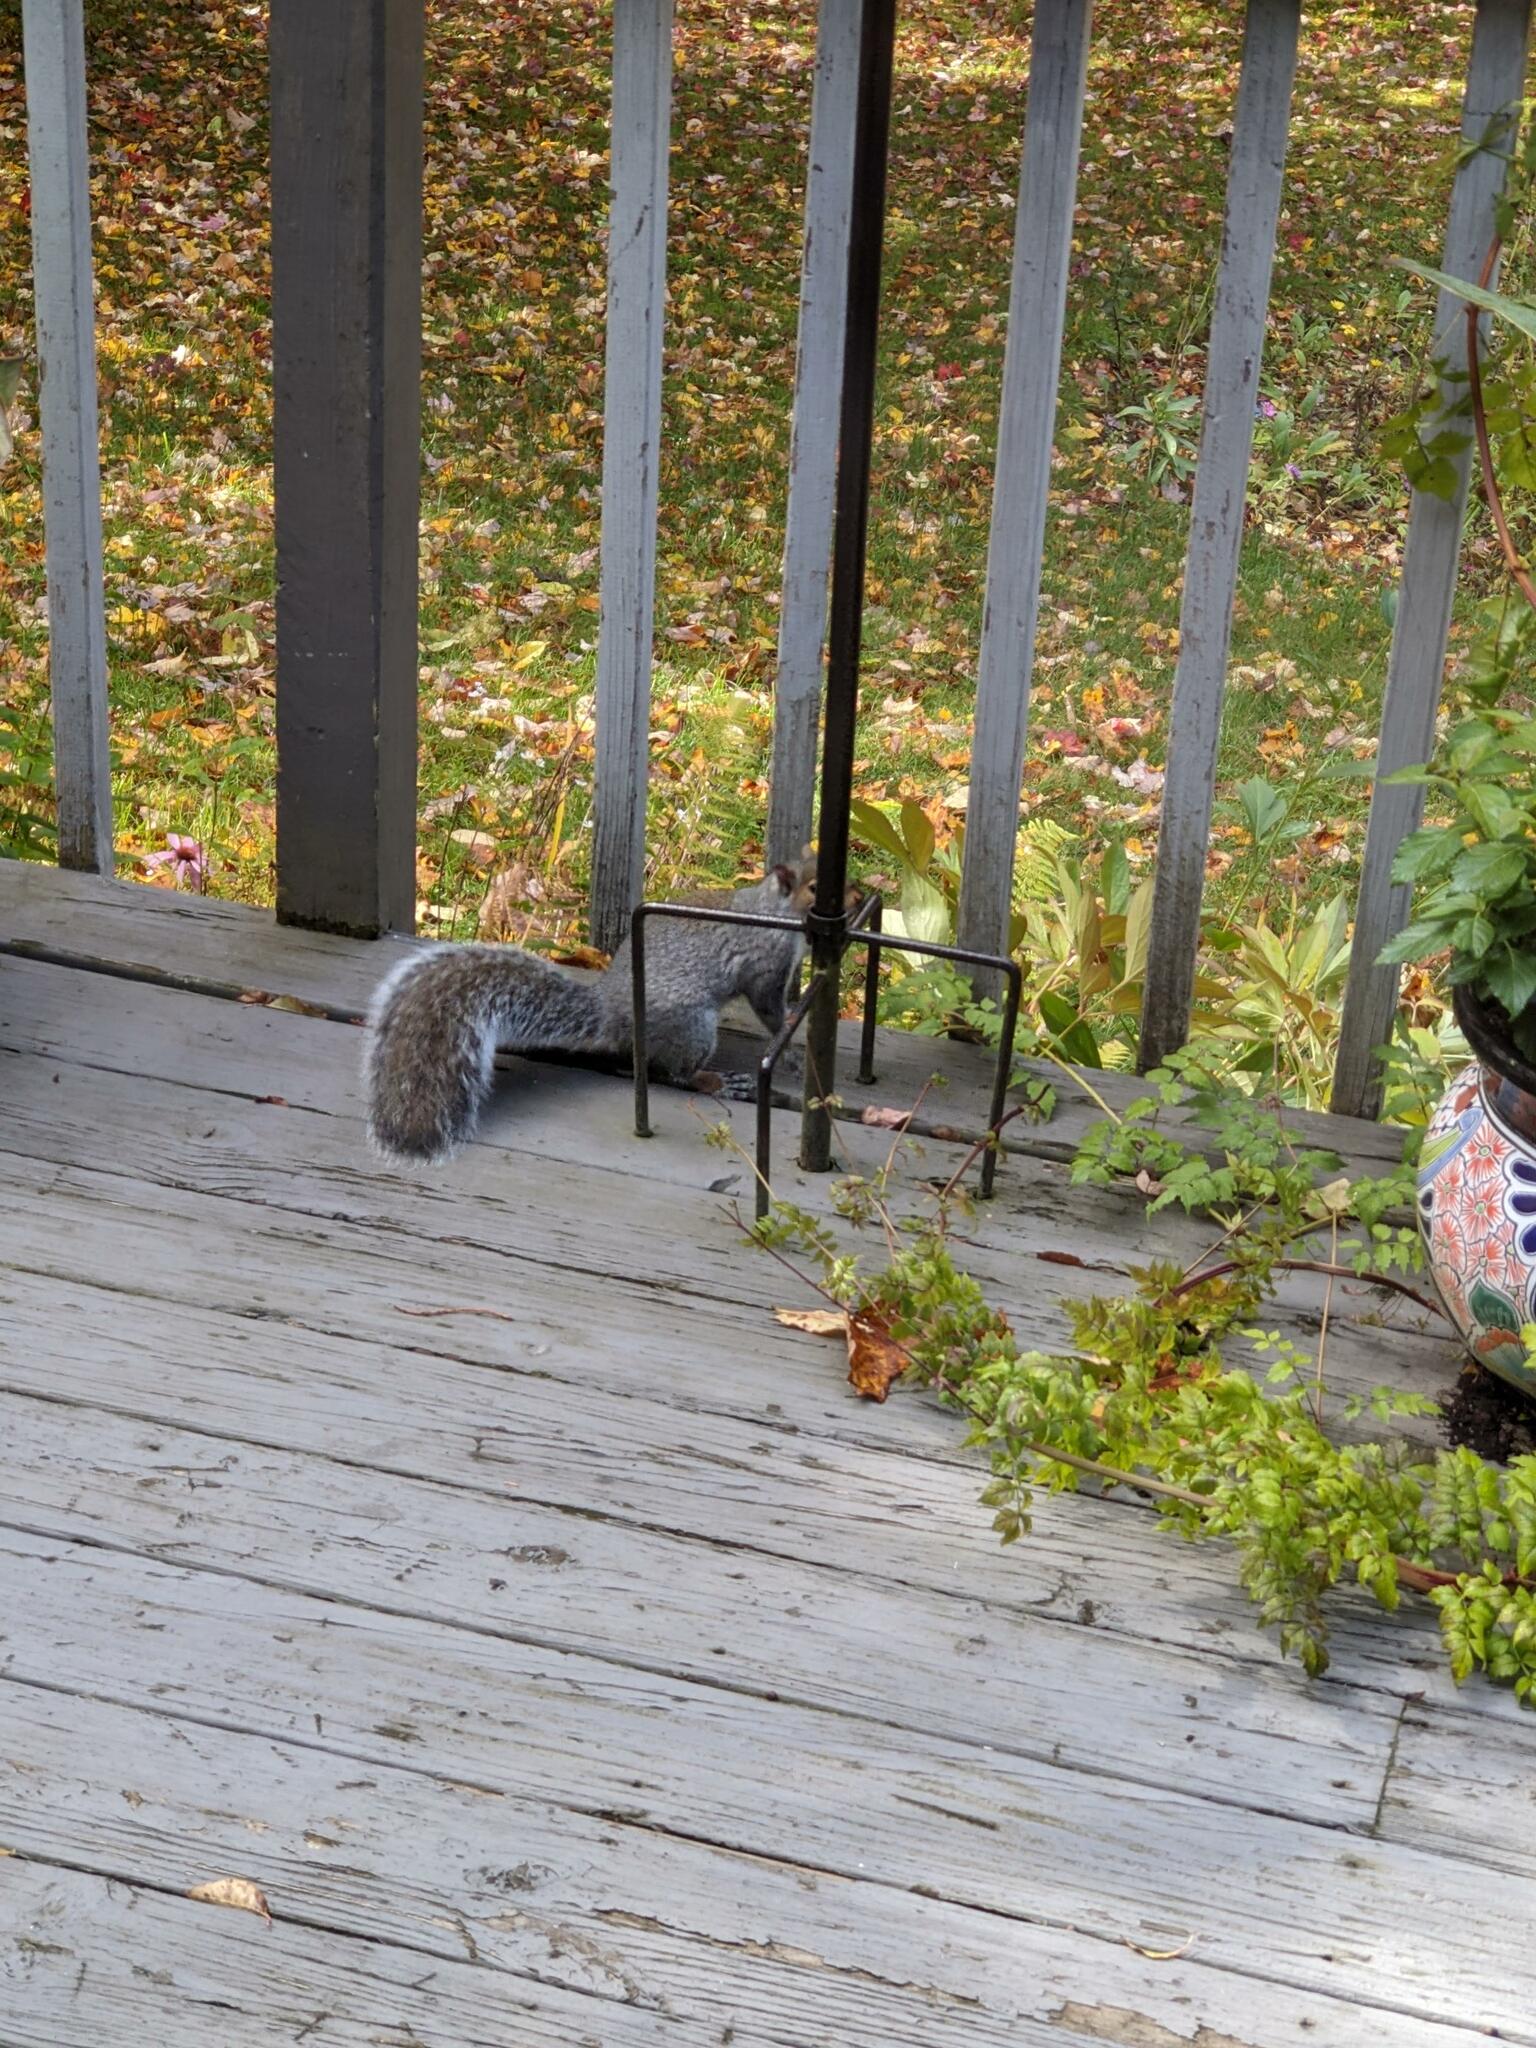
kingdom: Animalia
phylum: Chordata
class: Mammalia
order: Rodentia
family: Sciuridae
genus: Sciurus
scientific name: Sciurus carolinensis
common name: Eastern gray squirrel
